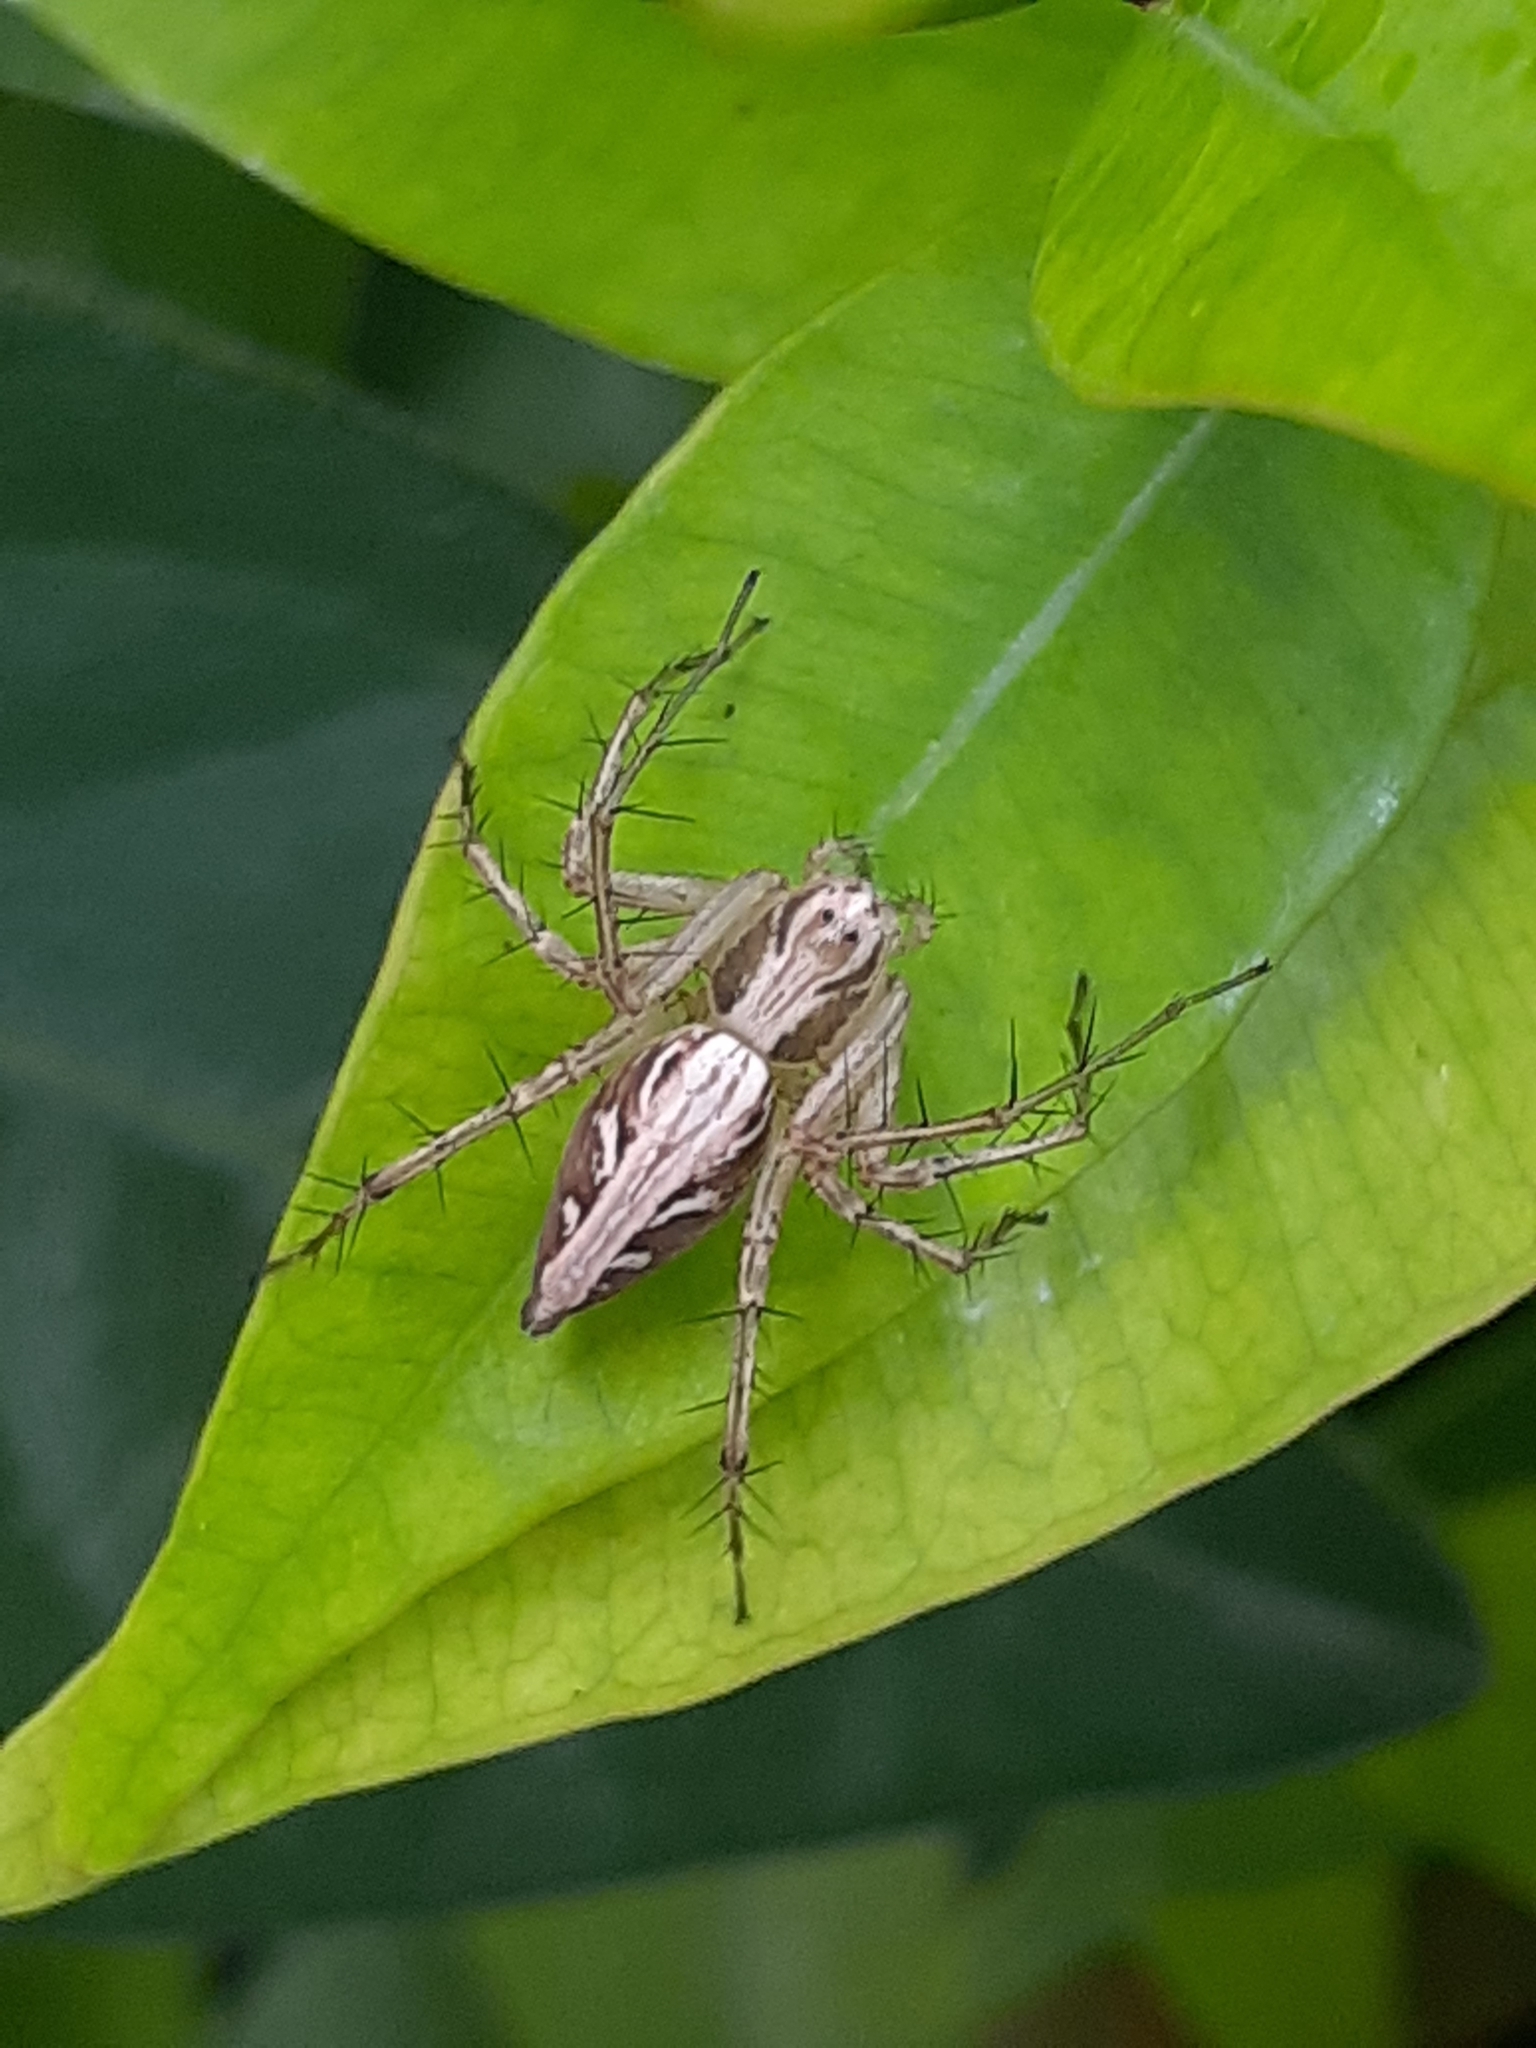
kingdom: Animalia
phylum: Arthropoda
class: Arachnida
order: Araneae
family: Oxyopidae
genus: Oxyopes
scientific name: Oxyopes sertatus
